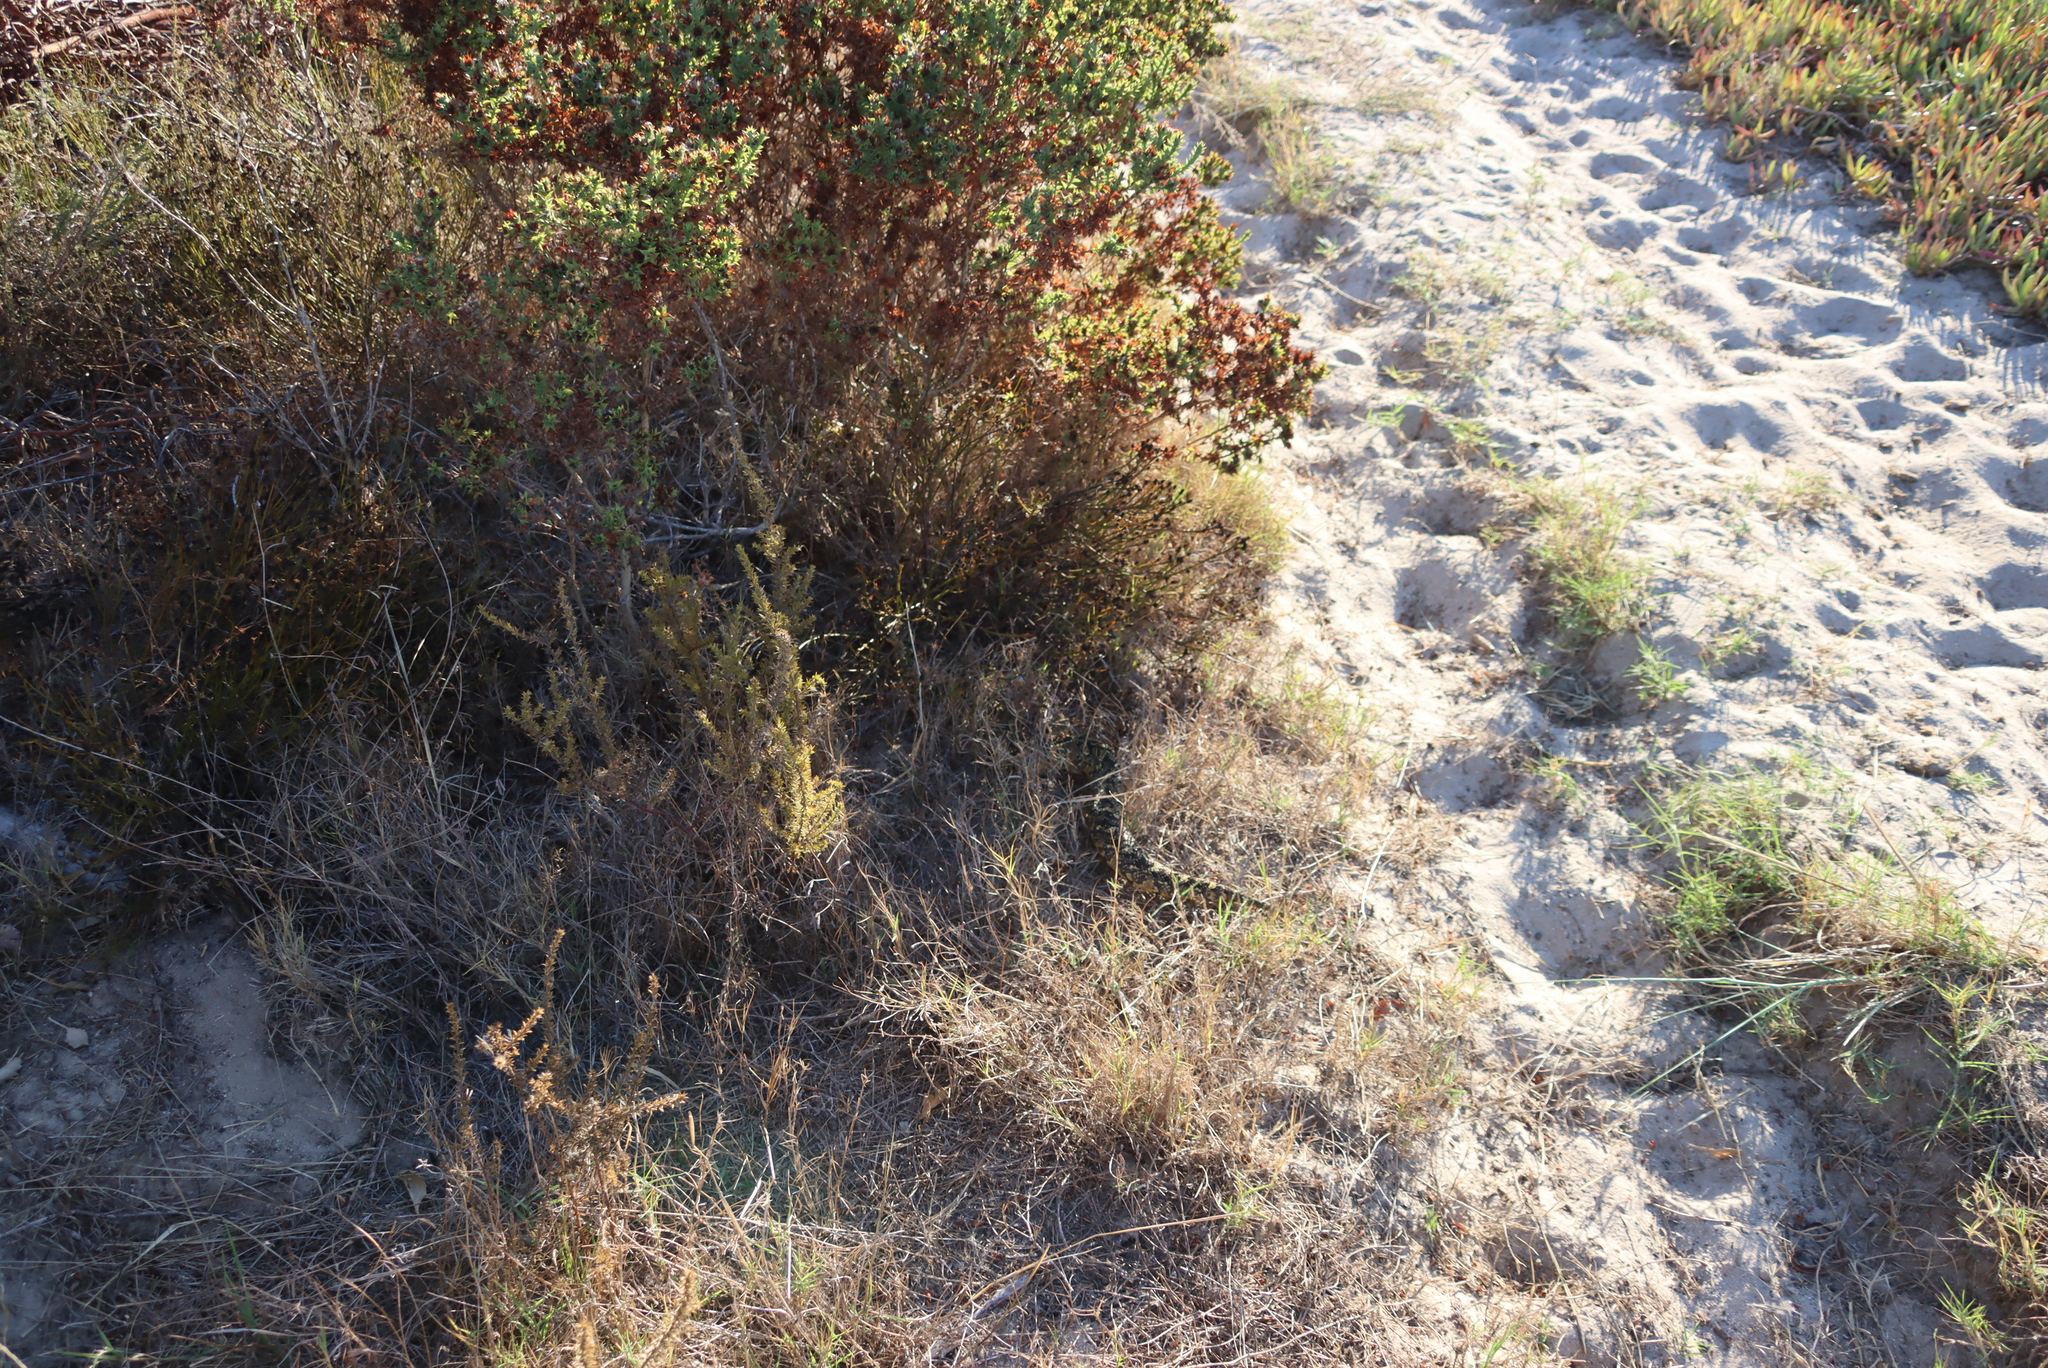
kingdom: Animalia
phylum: Chordata
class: Squamata
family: Viperidae
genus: Bitis
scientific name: Bitis arietans
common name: Puff adder
